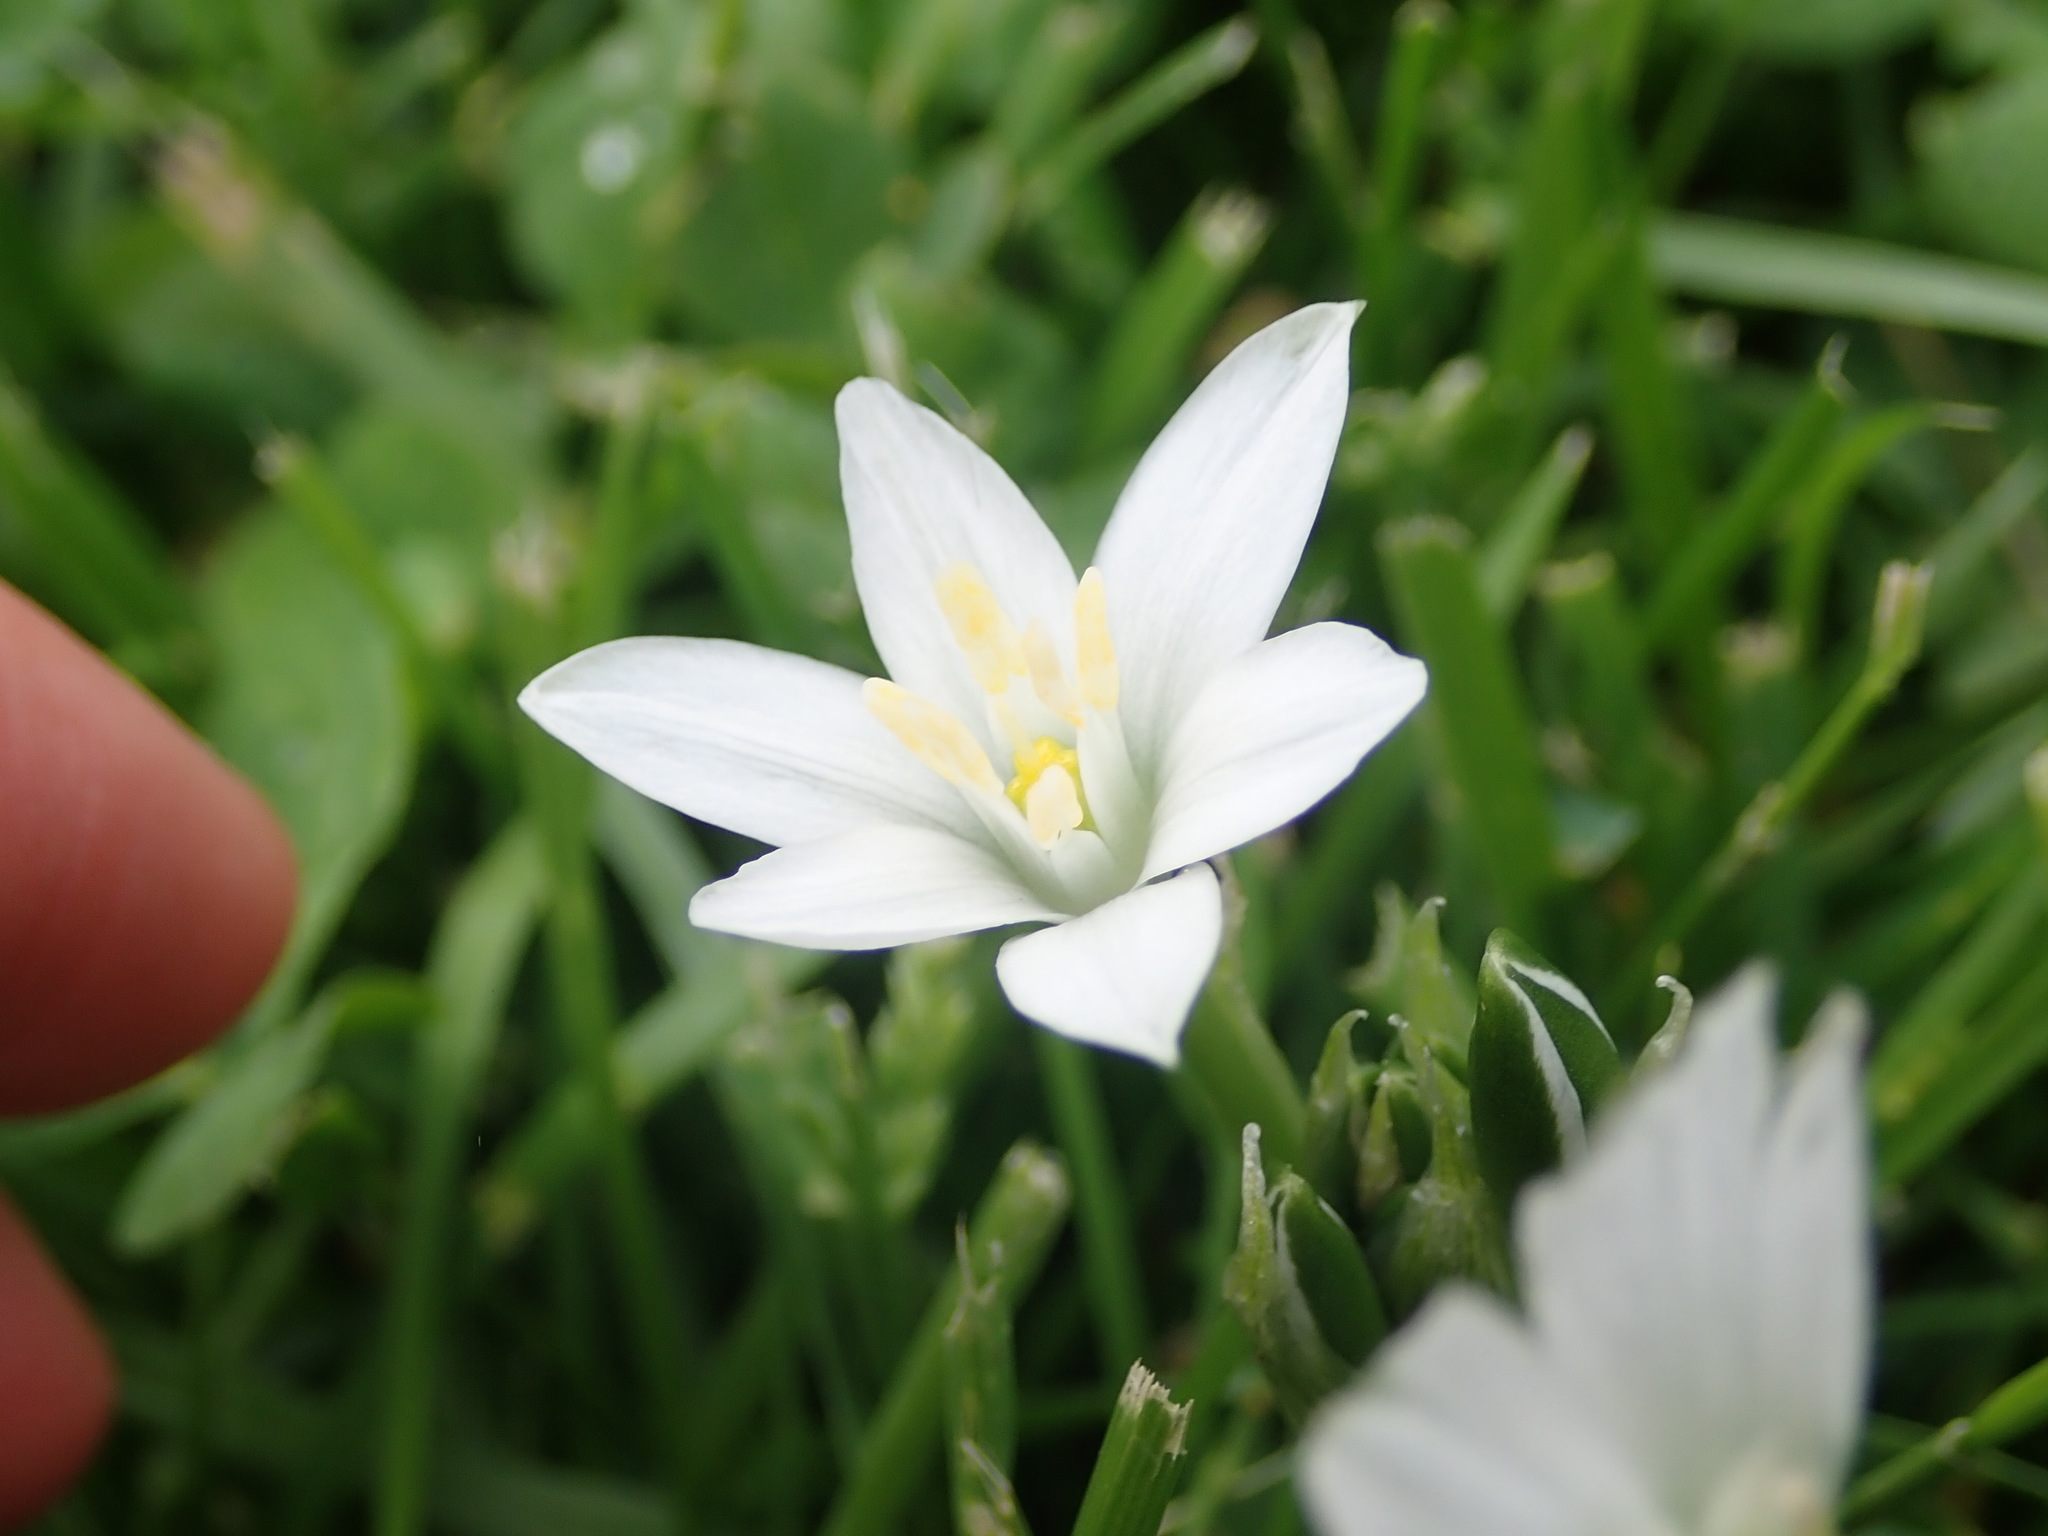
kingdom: Plantae
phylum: Tracheophyta
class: Liliopsida
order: Asparagales
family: Asparagaceae
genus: Ornithogalum
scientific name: Ornithogalum umbellatum
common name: Garden star-of-bethlehem
